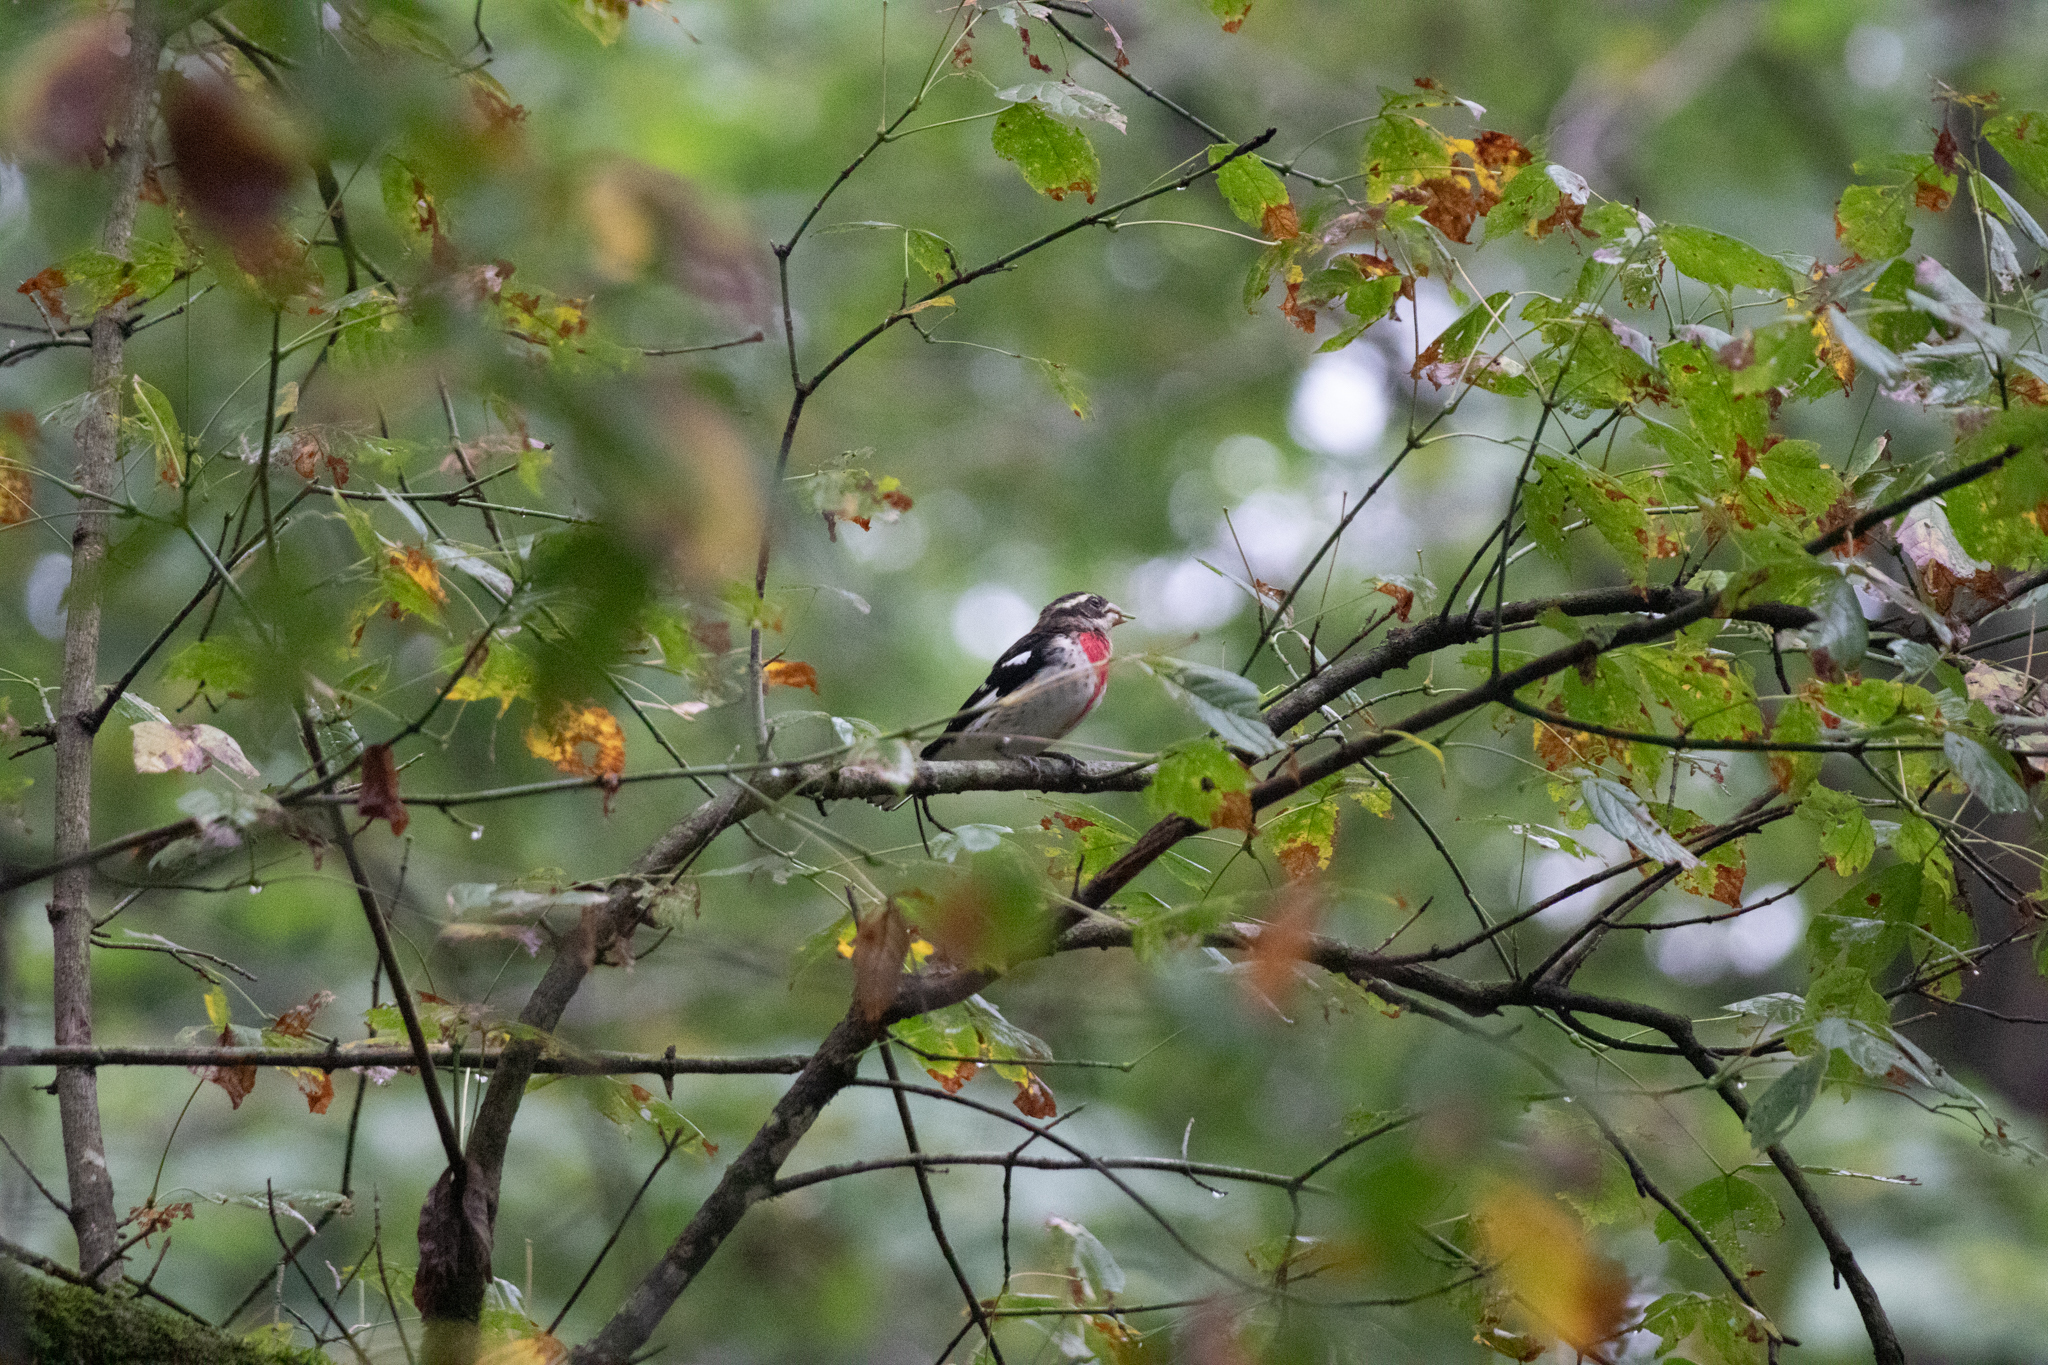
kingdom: Animalia
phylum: Chordata
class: Aves
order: Passeriformes
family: Cardinalidae
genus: Pheucticus
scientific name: Pheucticus ludovicianus
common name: Rose-breasted grosbeak
